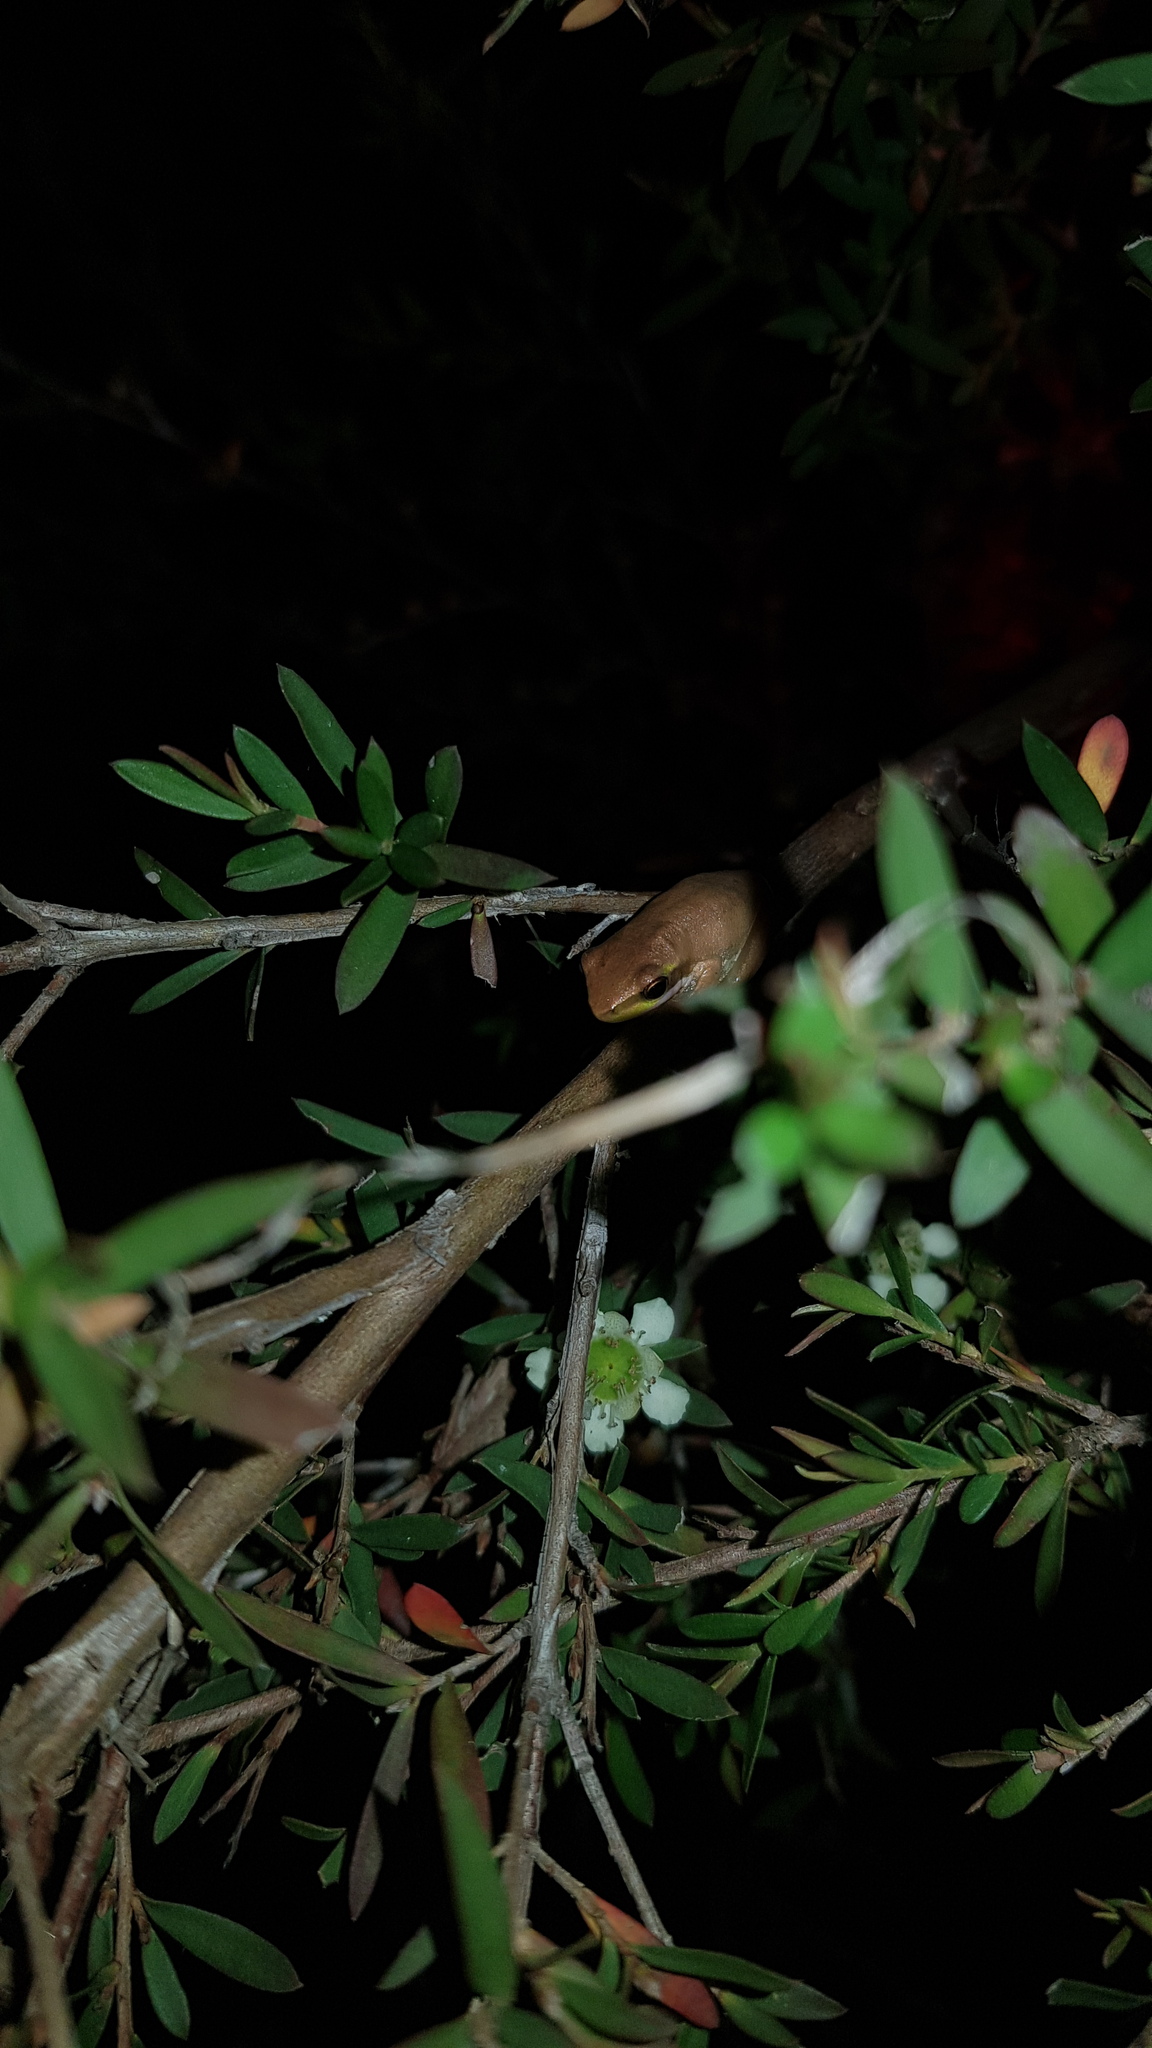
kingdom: Animalia
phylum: Chordata
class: Amphibia
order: Anura
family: Pelodryadidae
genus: Litoria
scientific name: Litoria fallax
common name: Eastern dwarf treefrog
